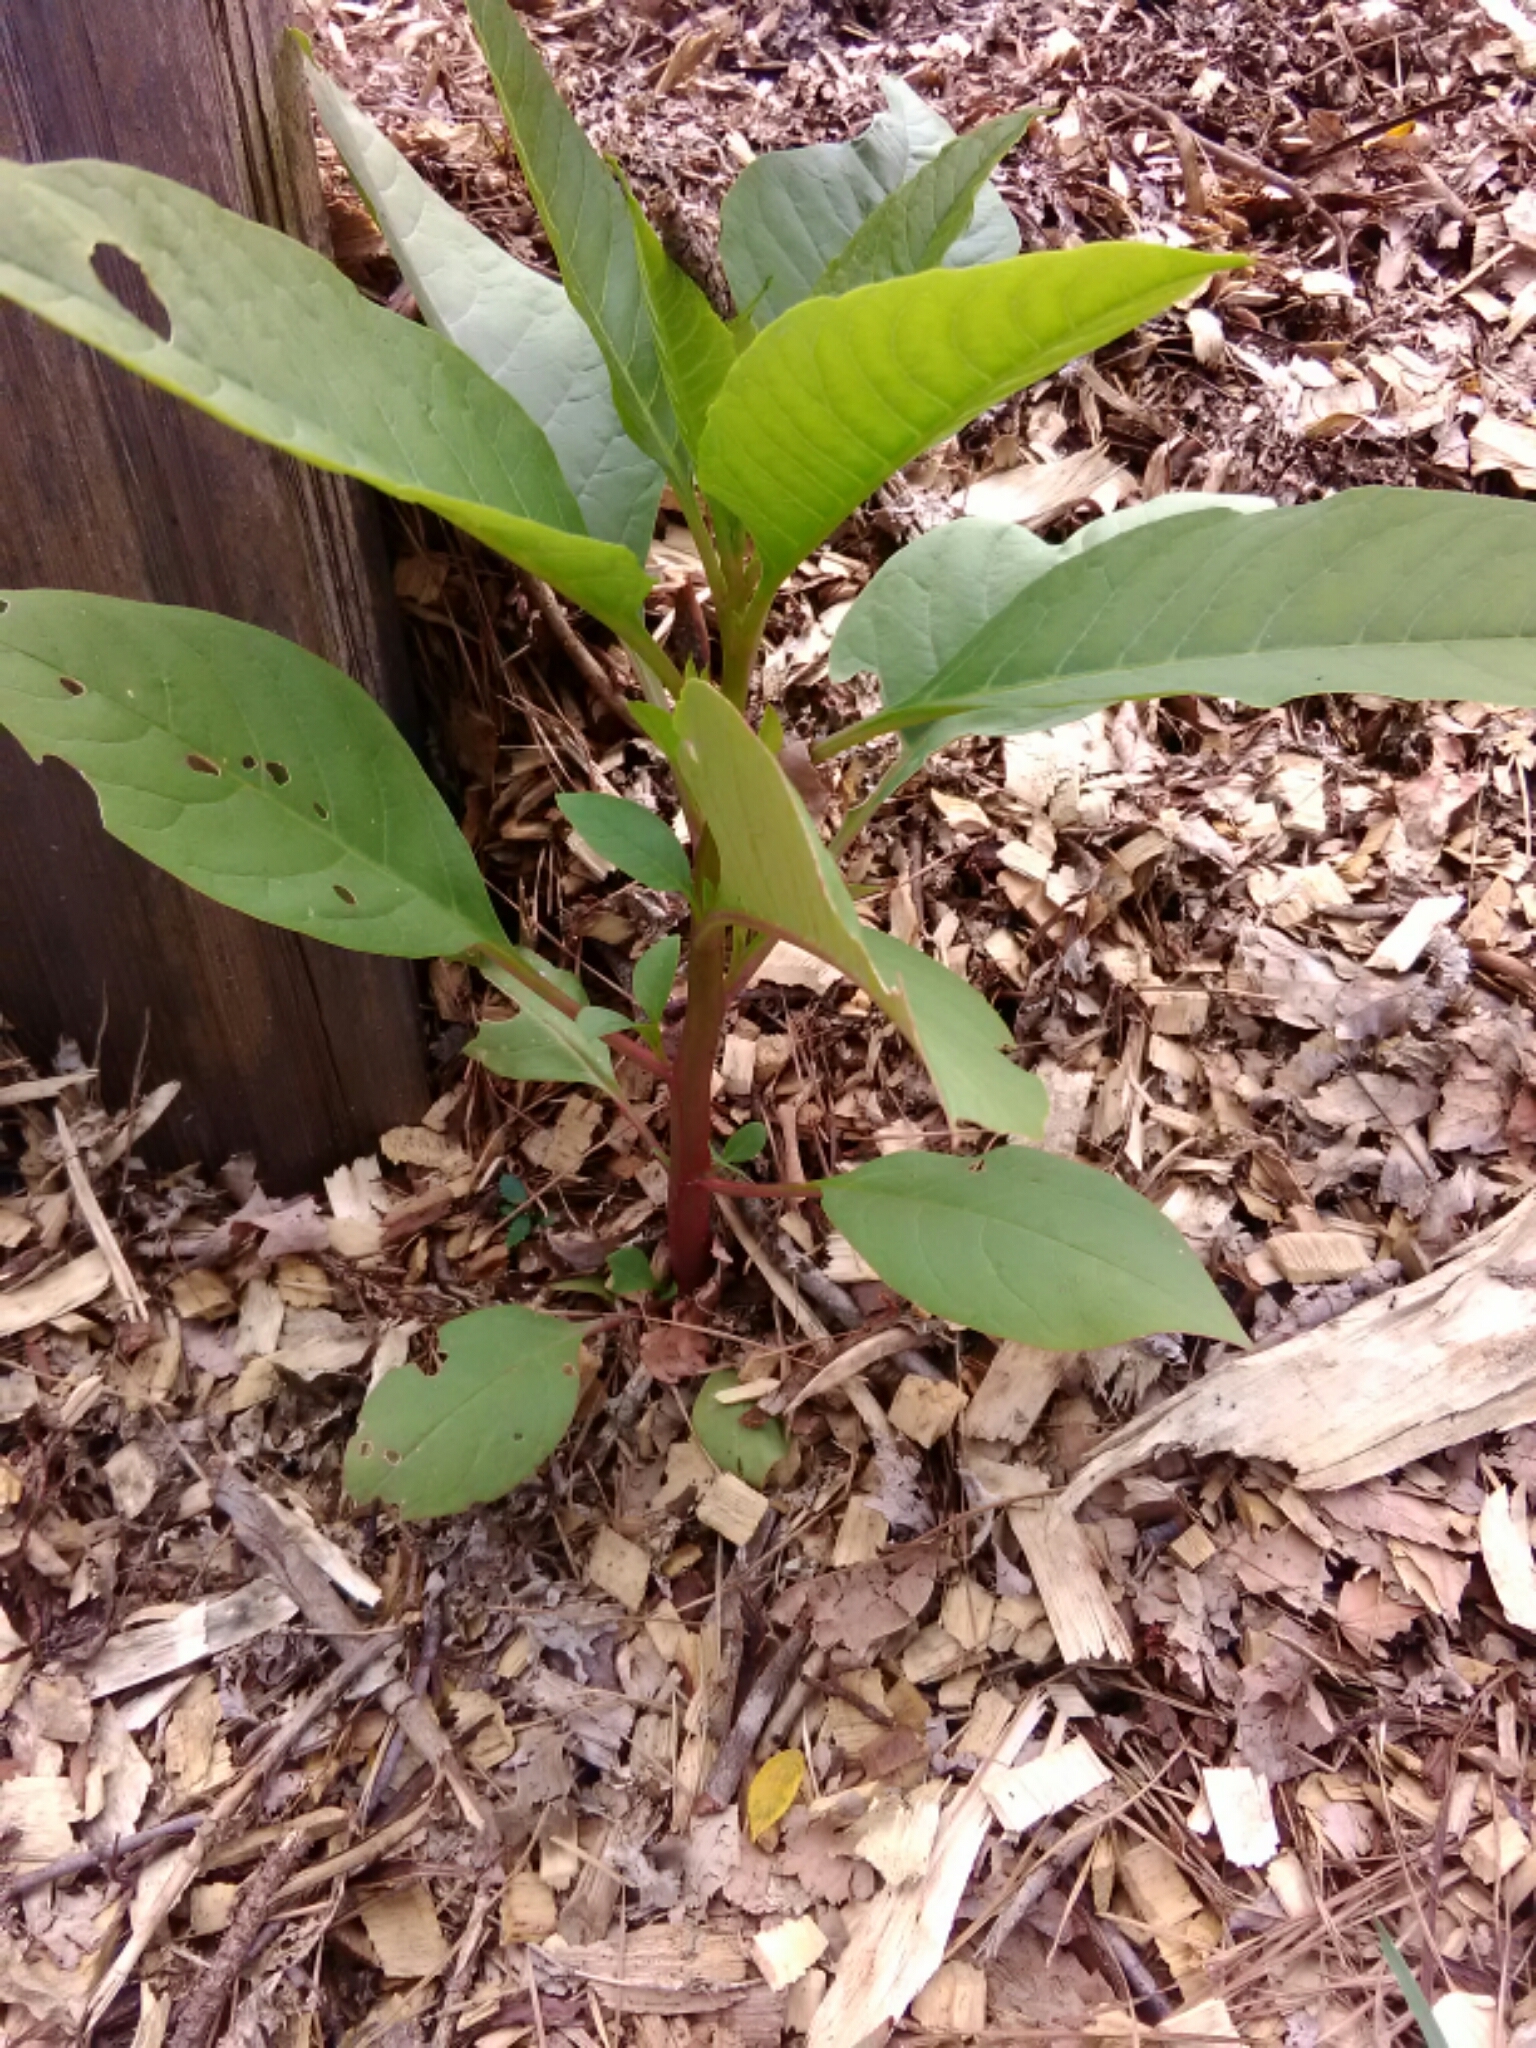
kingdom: Plantae
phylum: Tracheophyta
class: Magnoliopsida
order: Caryophyllales
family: Phytolaccaceae
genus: Phytolacca
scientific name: Phytolacca americana
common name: American pokeweed
